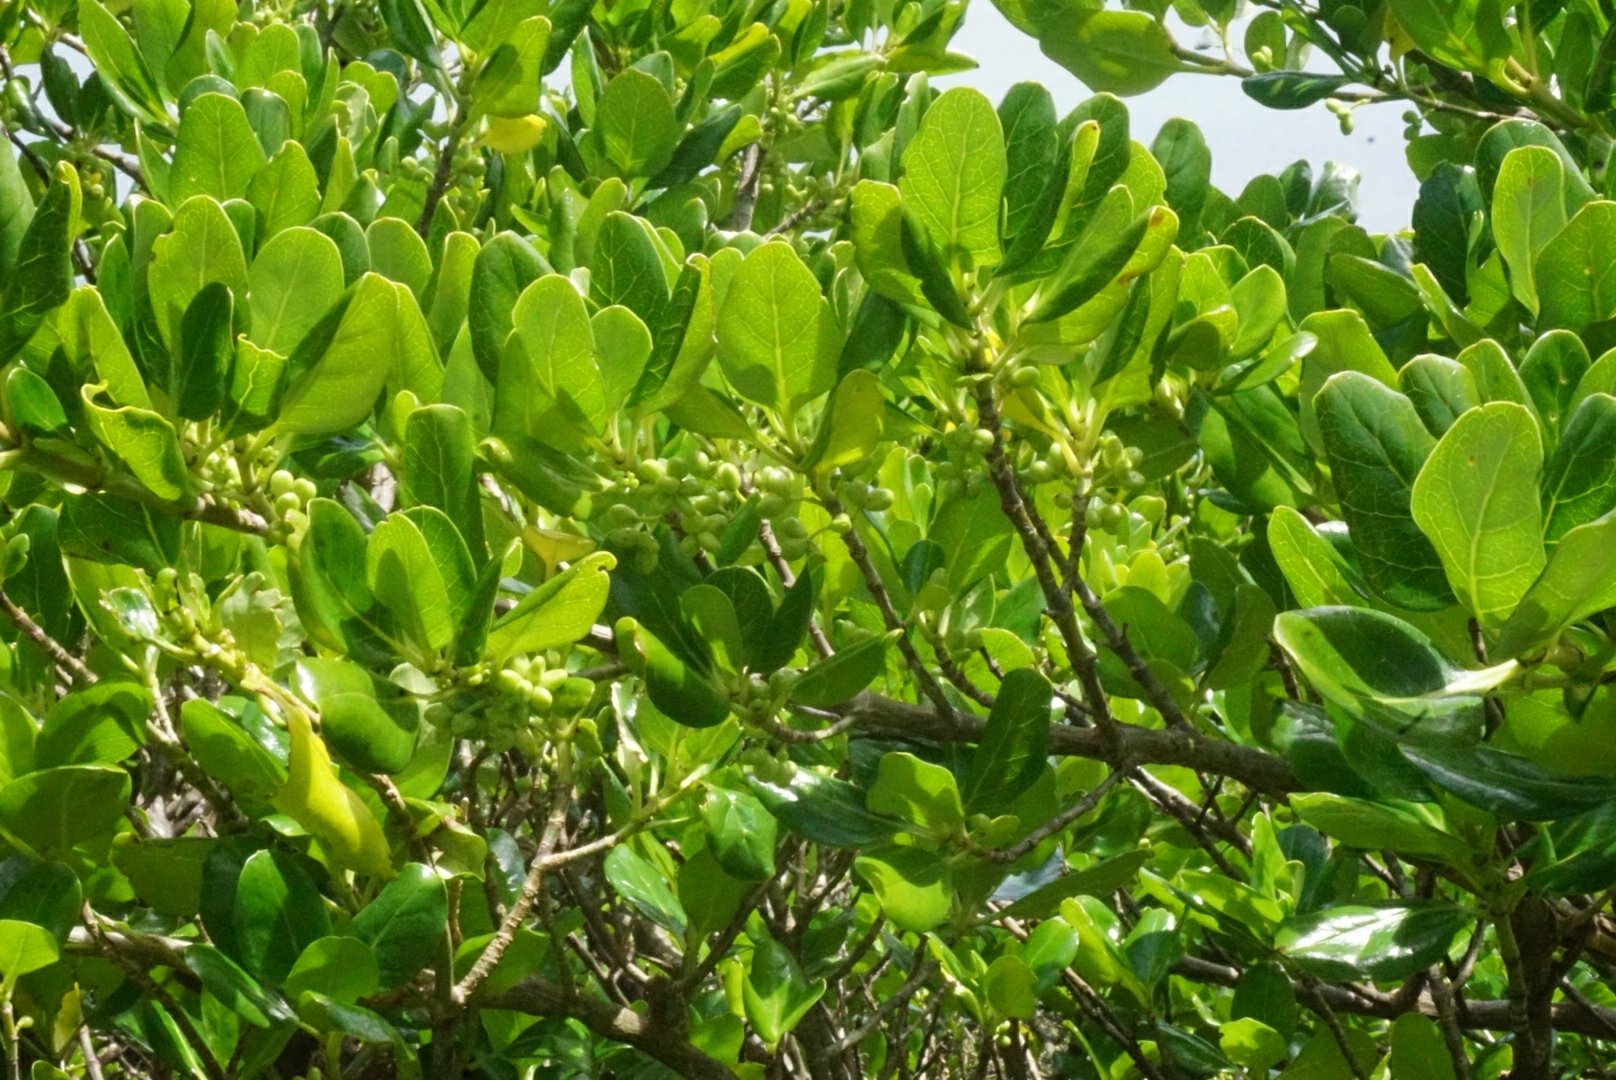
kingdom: Plantae
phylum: Tracheophyta
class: Magnoliopsida
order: Gentianales
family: Rubiaceae
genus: Coprosma
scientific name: Coprosma repens
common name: Tree bedstraw
